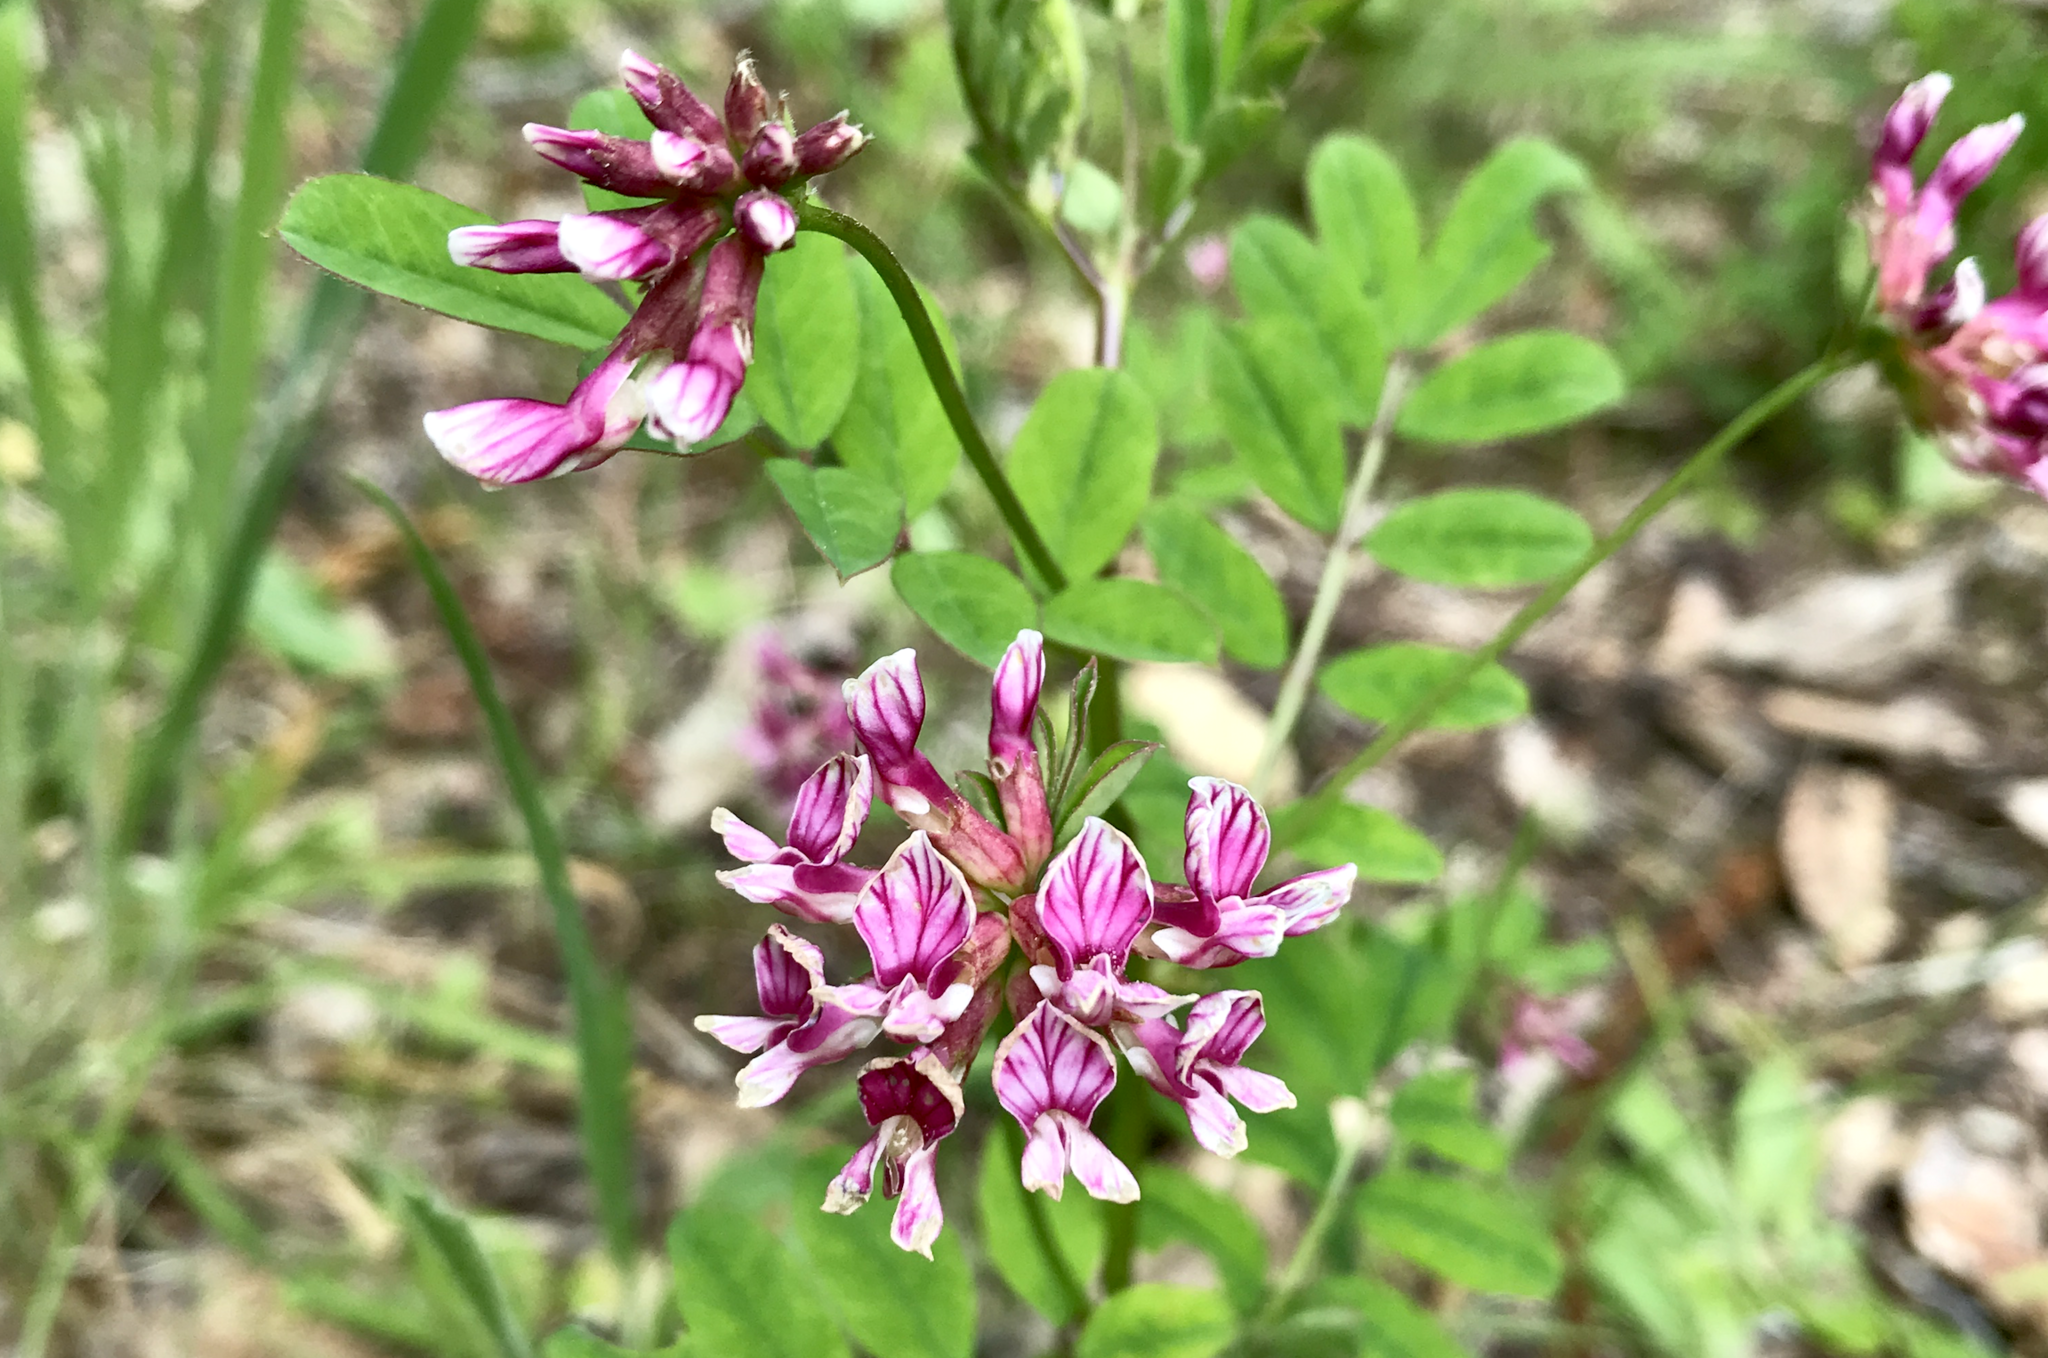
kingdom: Plantae
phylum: Tracheophyta
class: Magnoliopsida
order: Fabales
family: Fabaceae
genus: Hosackia
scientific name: Hosackia rosea
